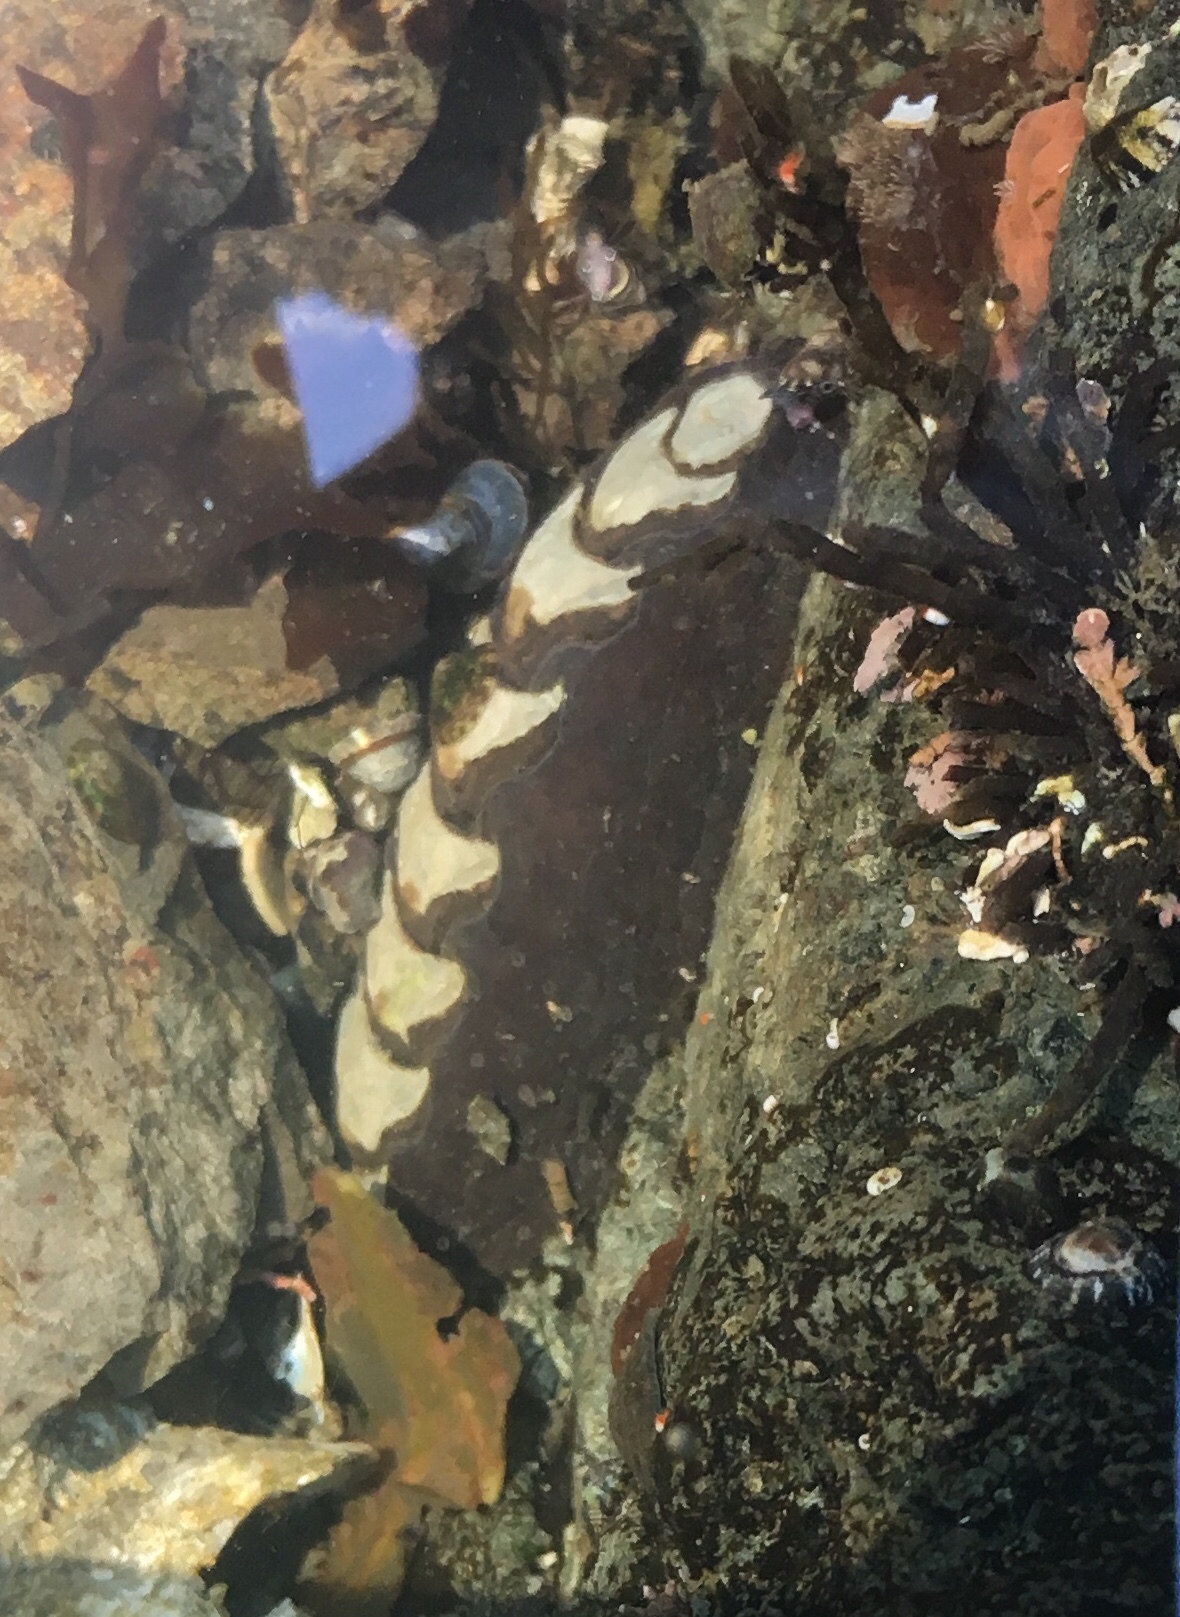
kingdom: Animalia
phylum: Mollusca
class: Polyplacophora
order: Chitonida
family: Mopaliidae
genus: Katharina
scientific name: Katharina tunicata
